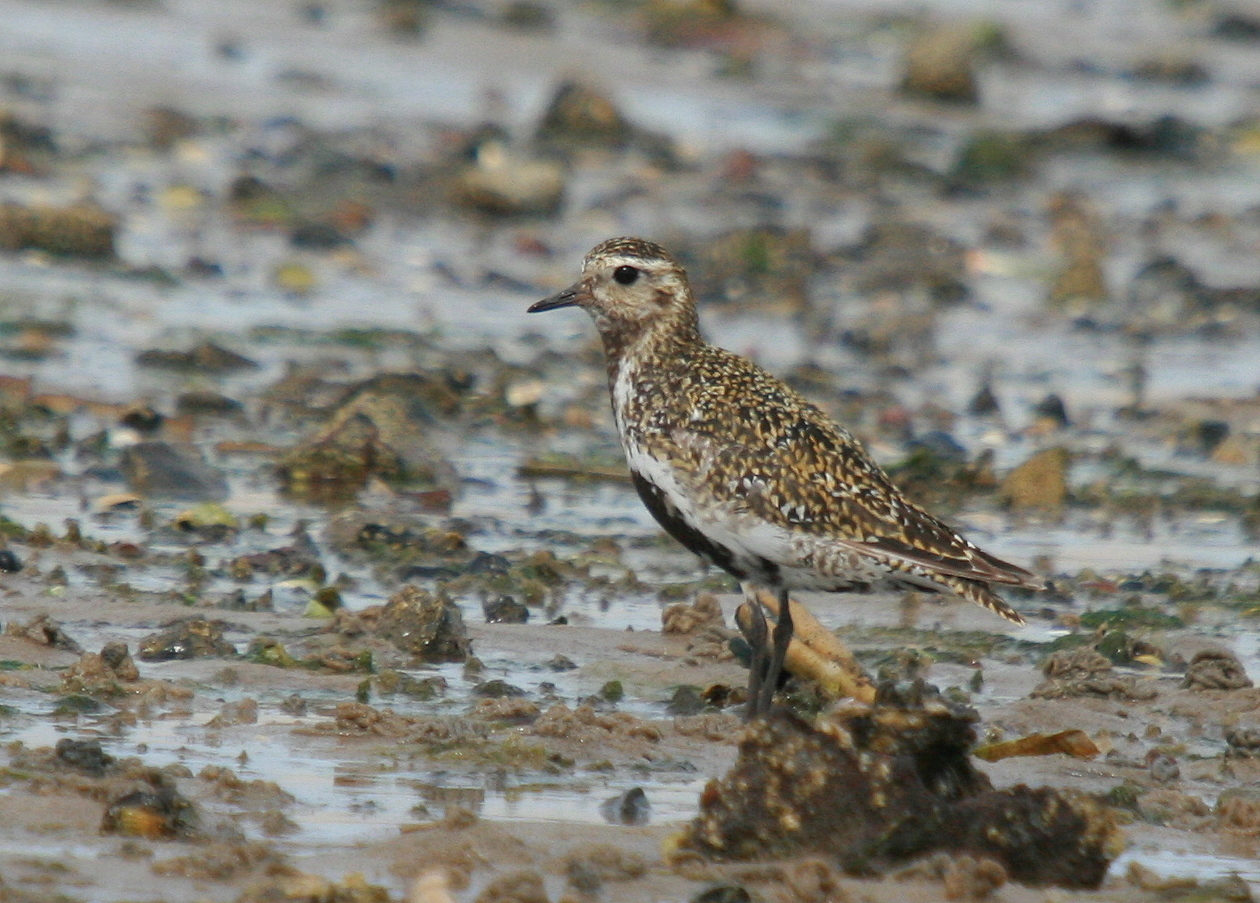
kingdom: Animalia
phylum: Chordata
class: Aves
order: Charadriiformes
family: Charadriidae
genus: Pluvialis
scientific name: Pluvialis apricaria
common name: European golden plover
